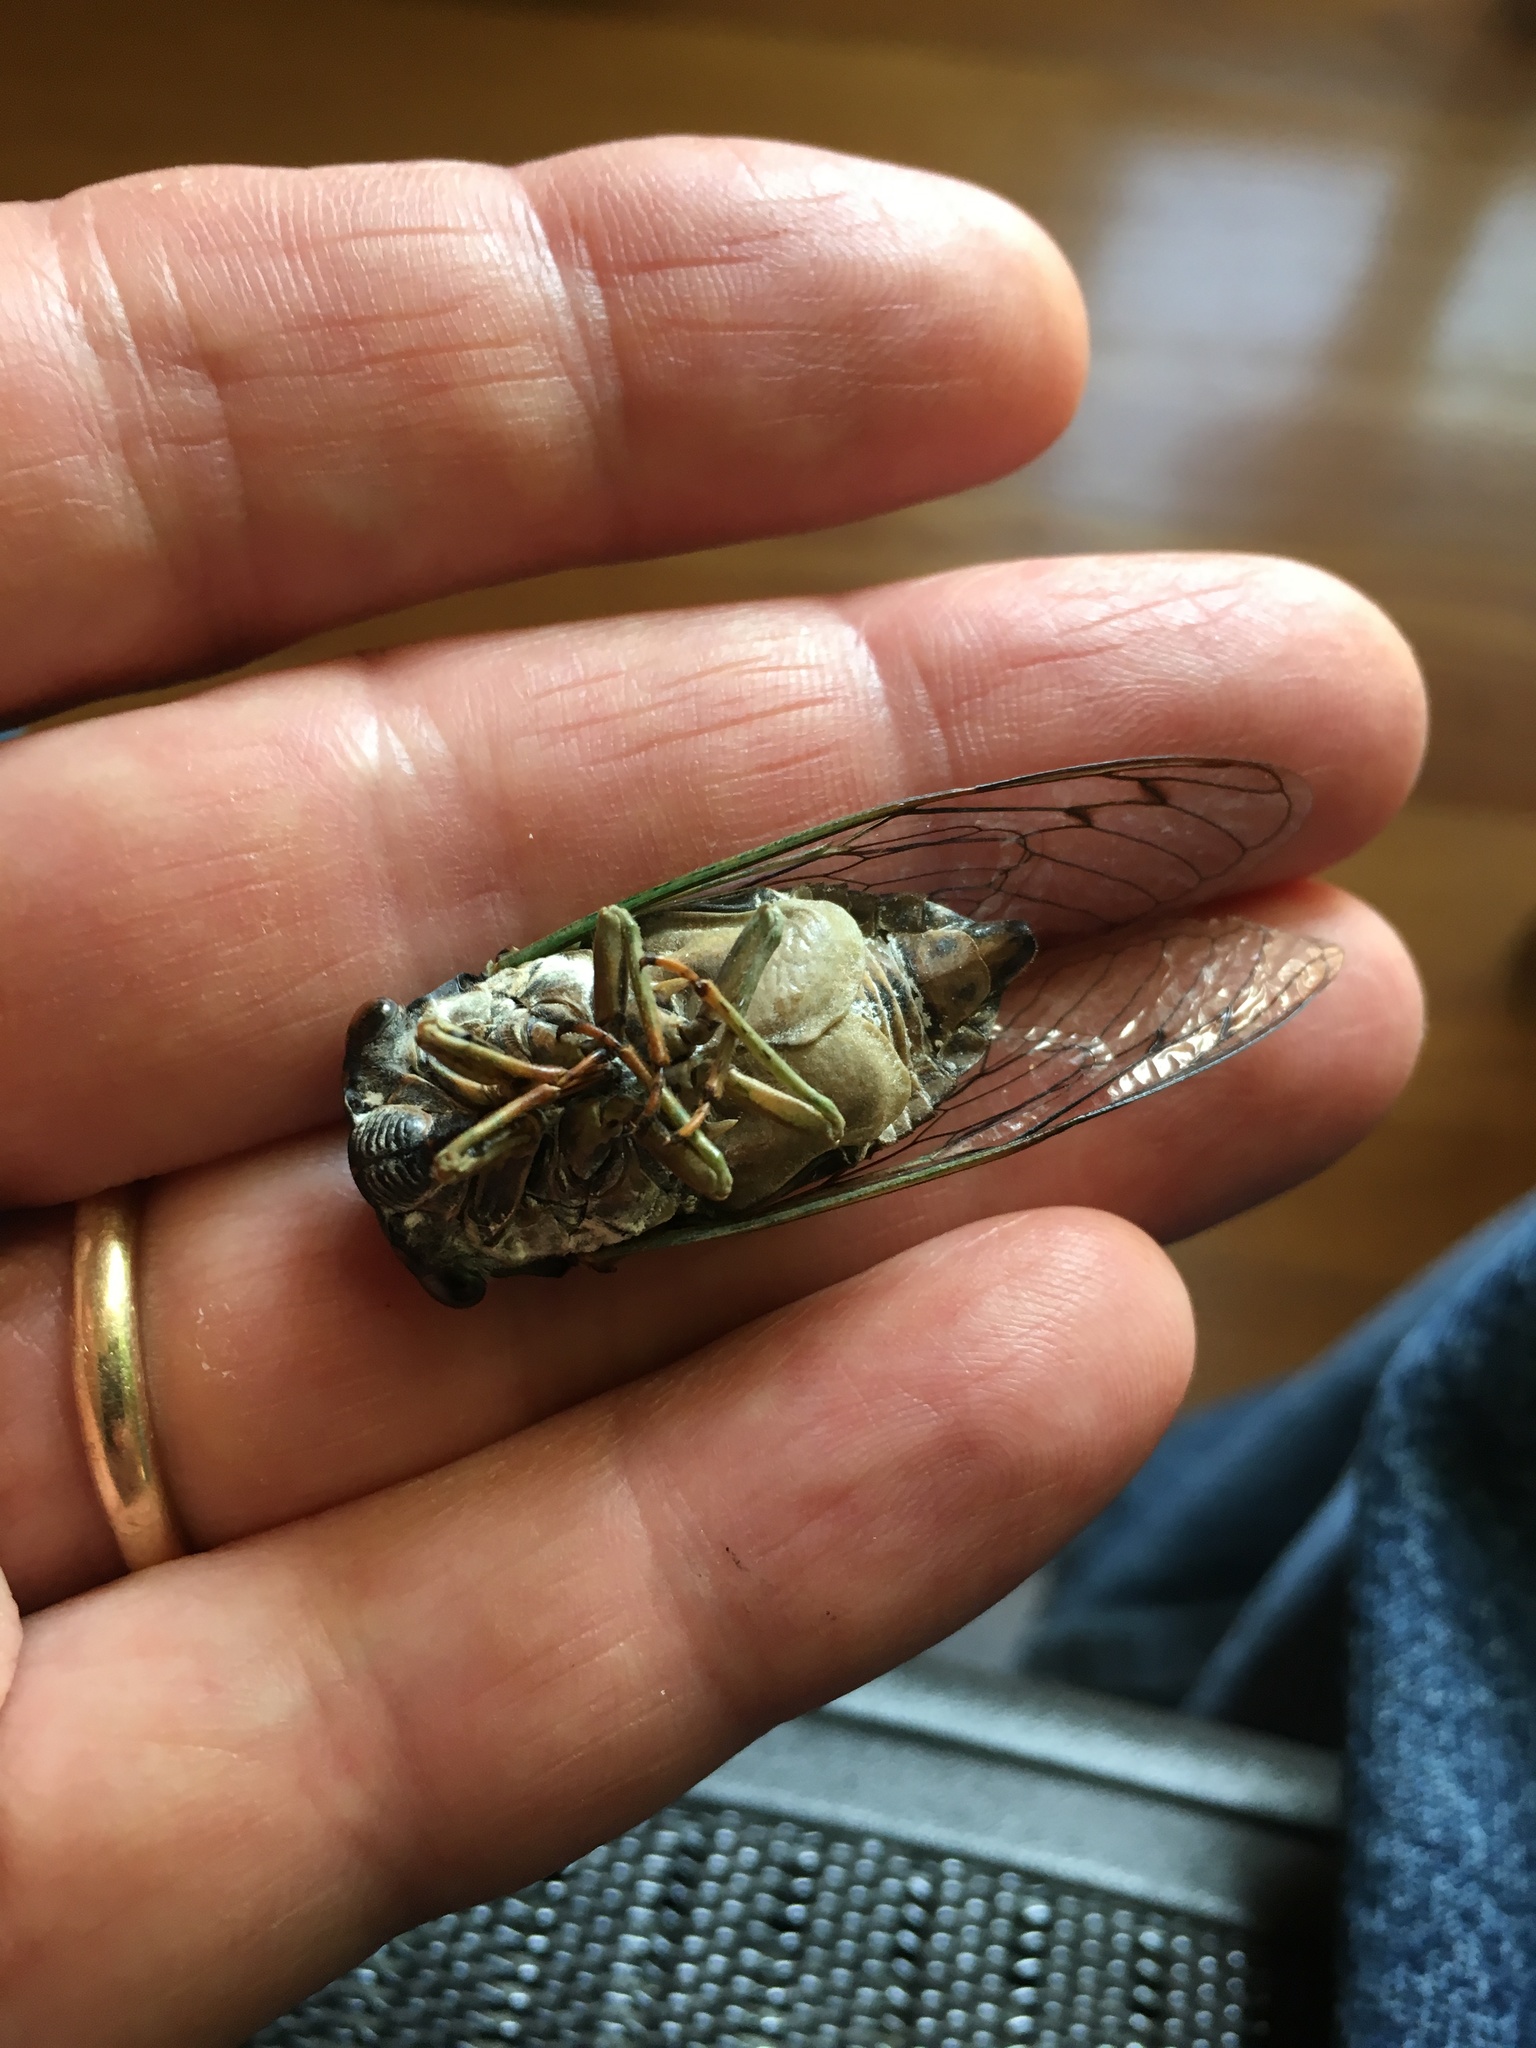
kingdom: Animalia
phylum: Arthropoda
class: Insecta
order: Hemiptera
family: Cicadidae
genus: Neotibicen
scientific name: Neotibicen tibicen
